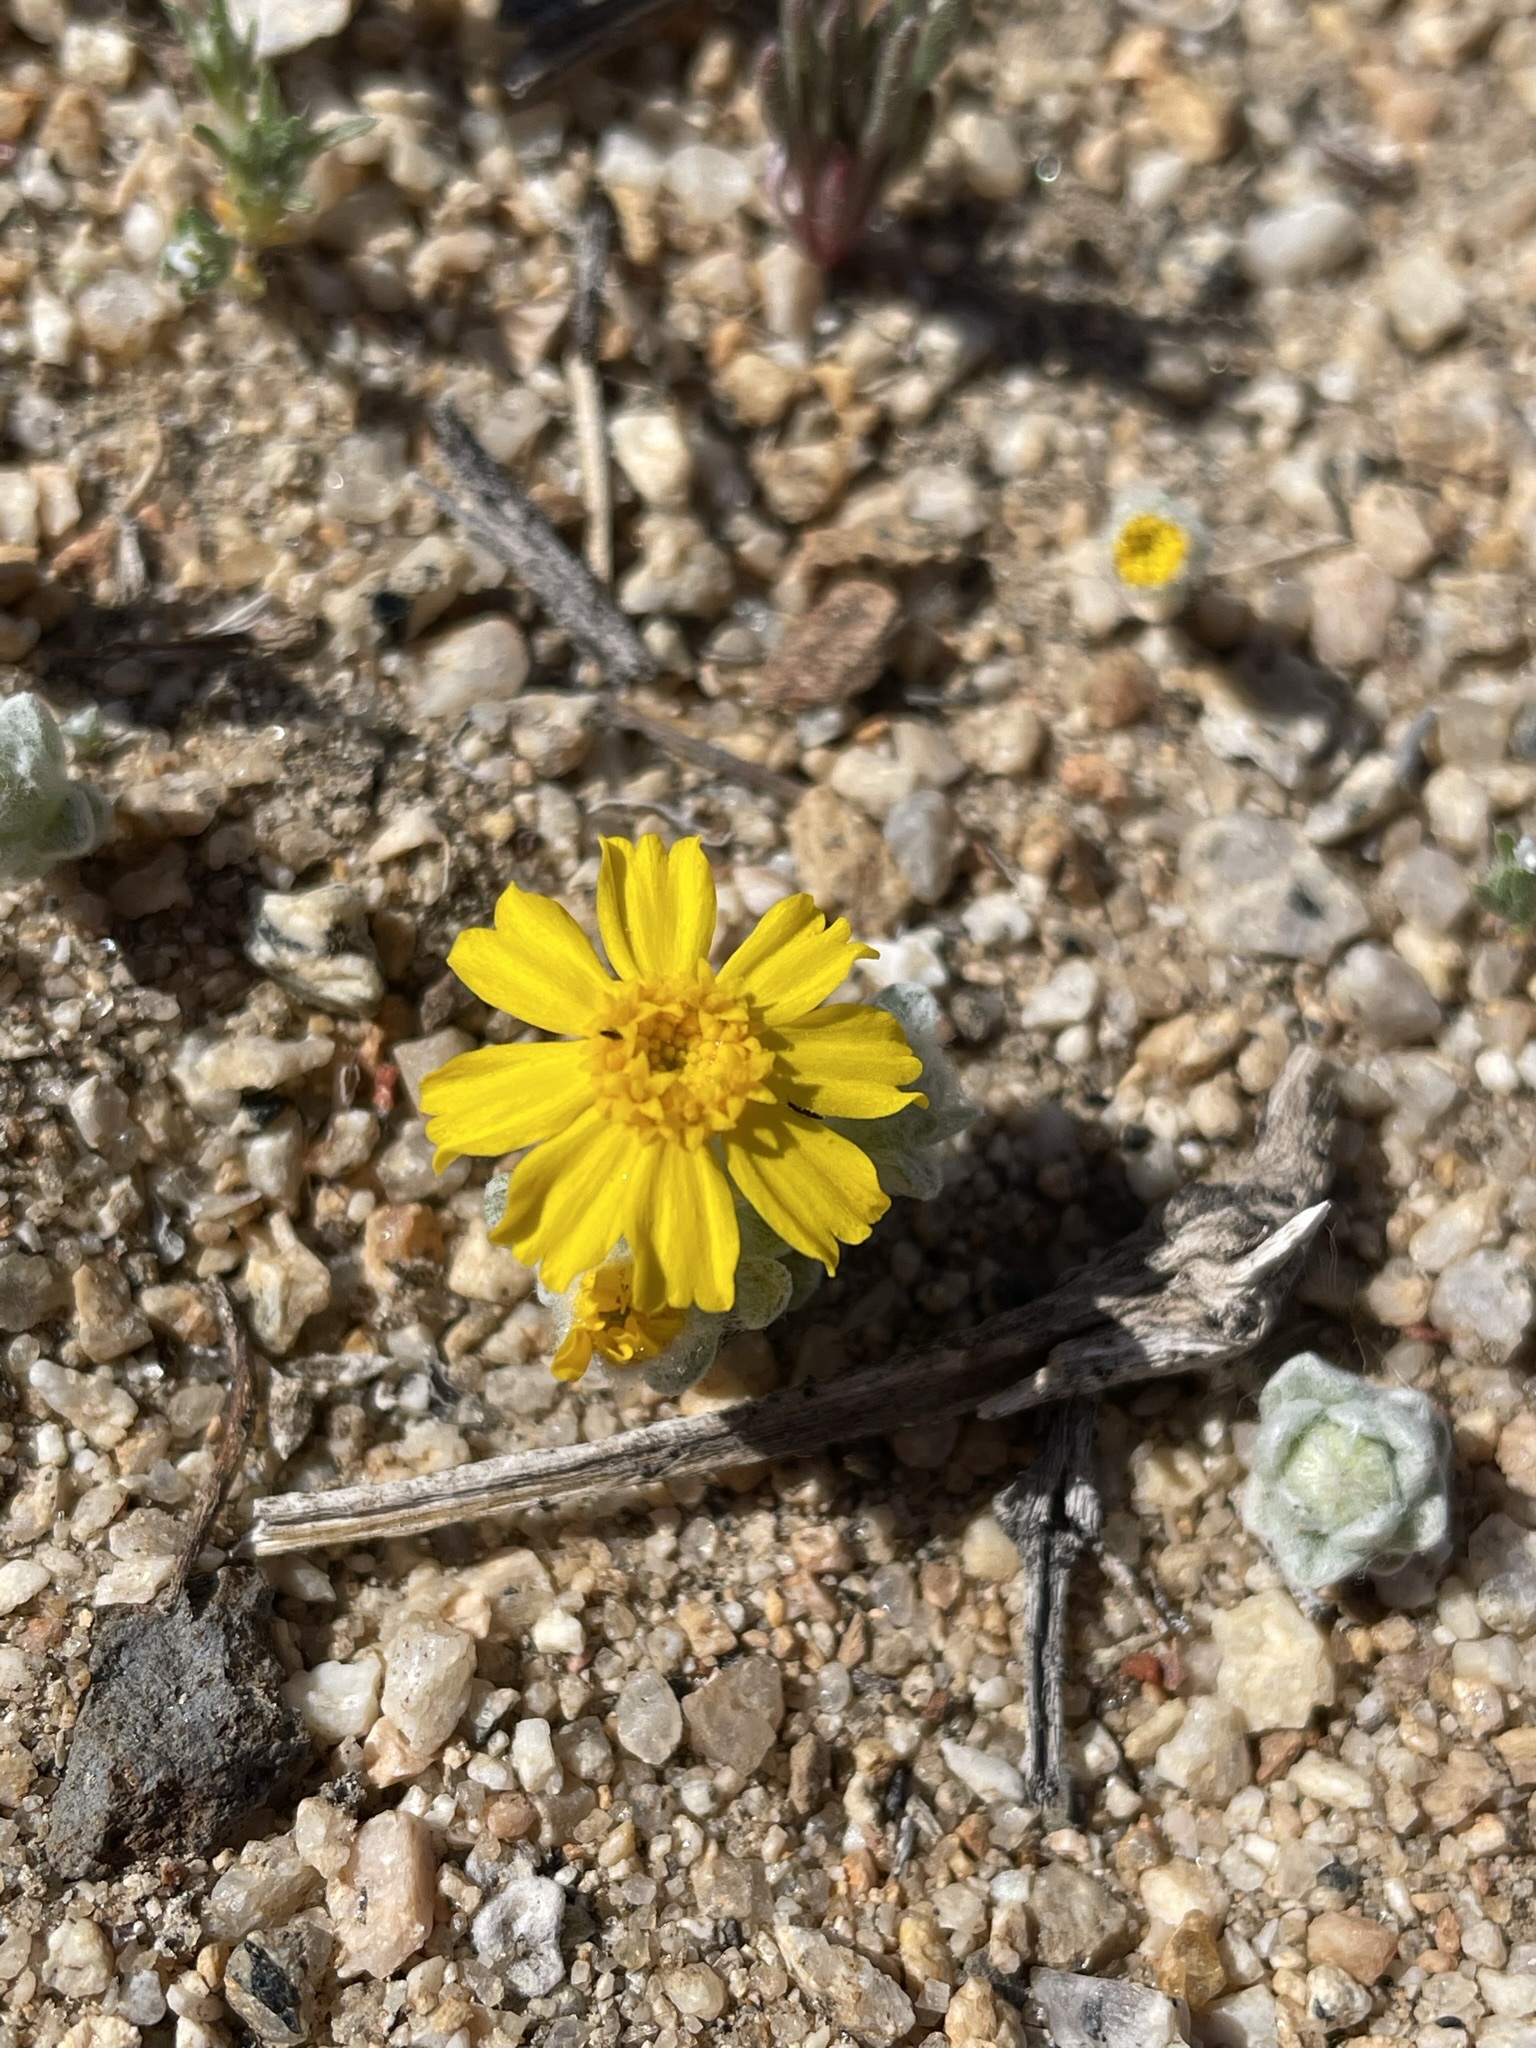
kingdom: Plantae
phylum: Tracheophyta
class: Magnoliopsida
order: Asterales
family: Asteraceae
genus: Eriophyllum
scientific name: Eriophyllum wallacei
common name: Wallace's woolly daisy
